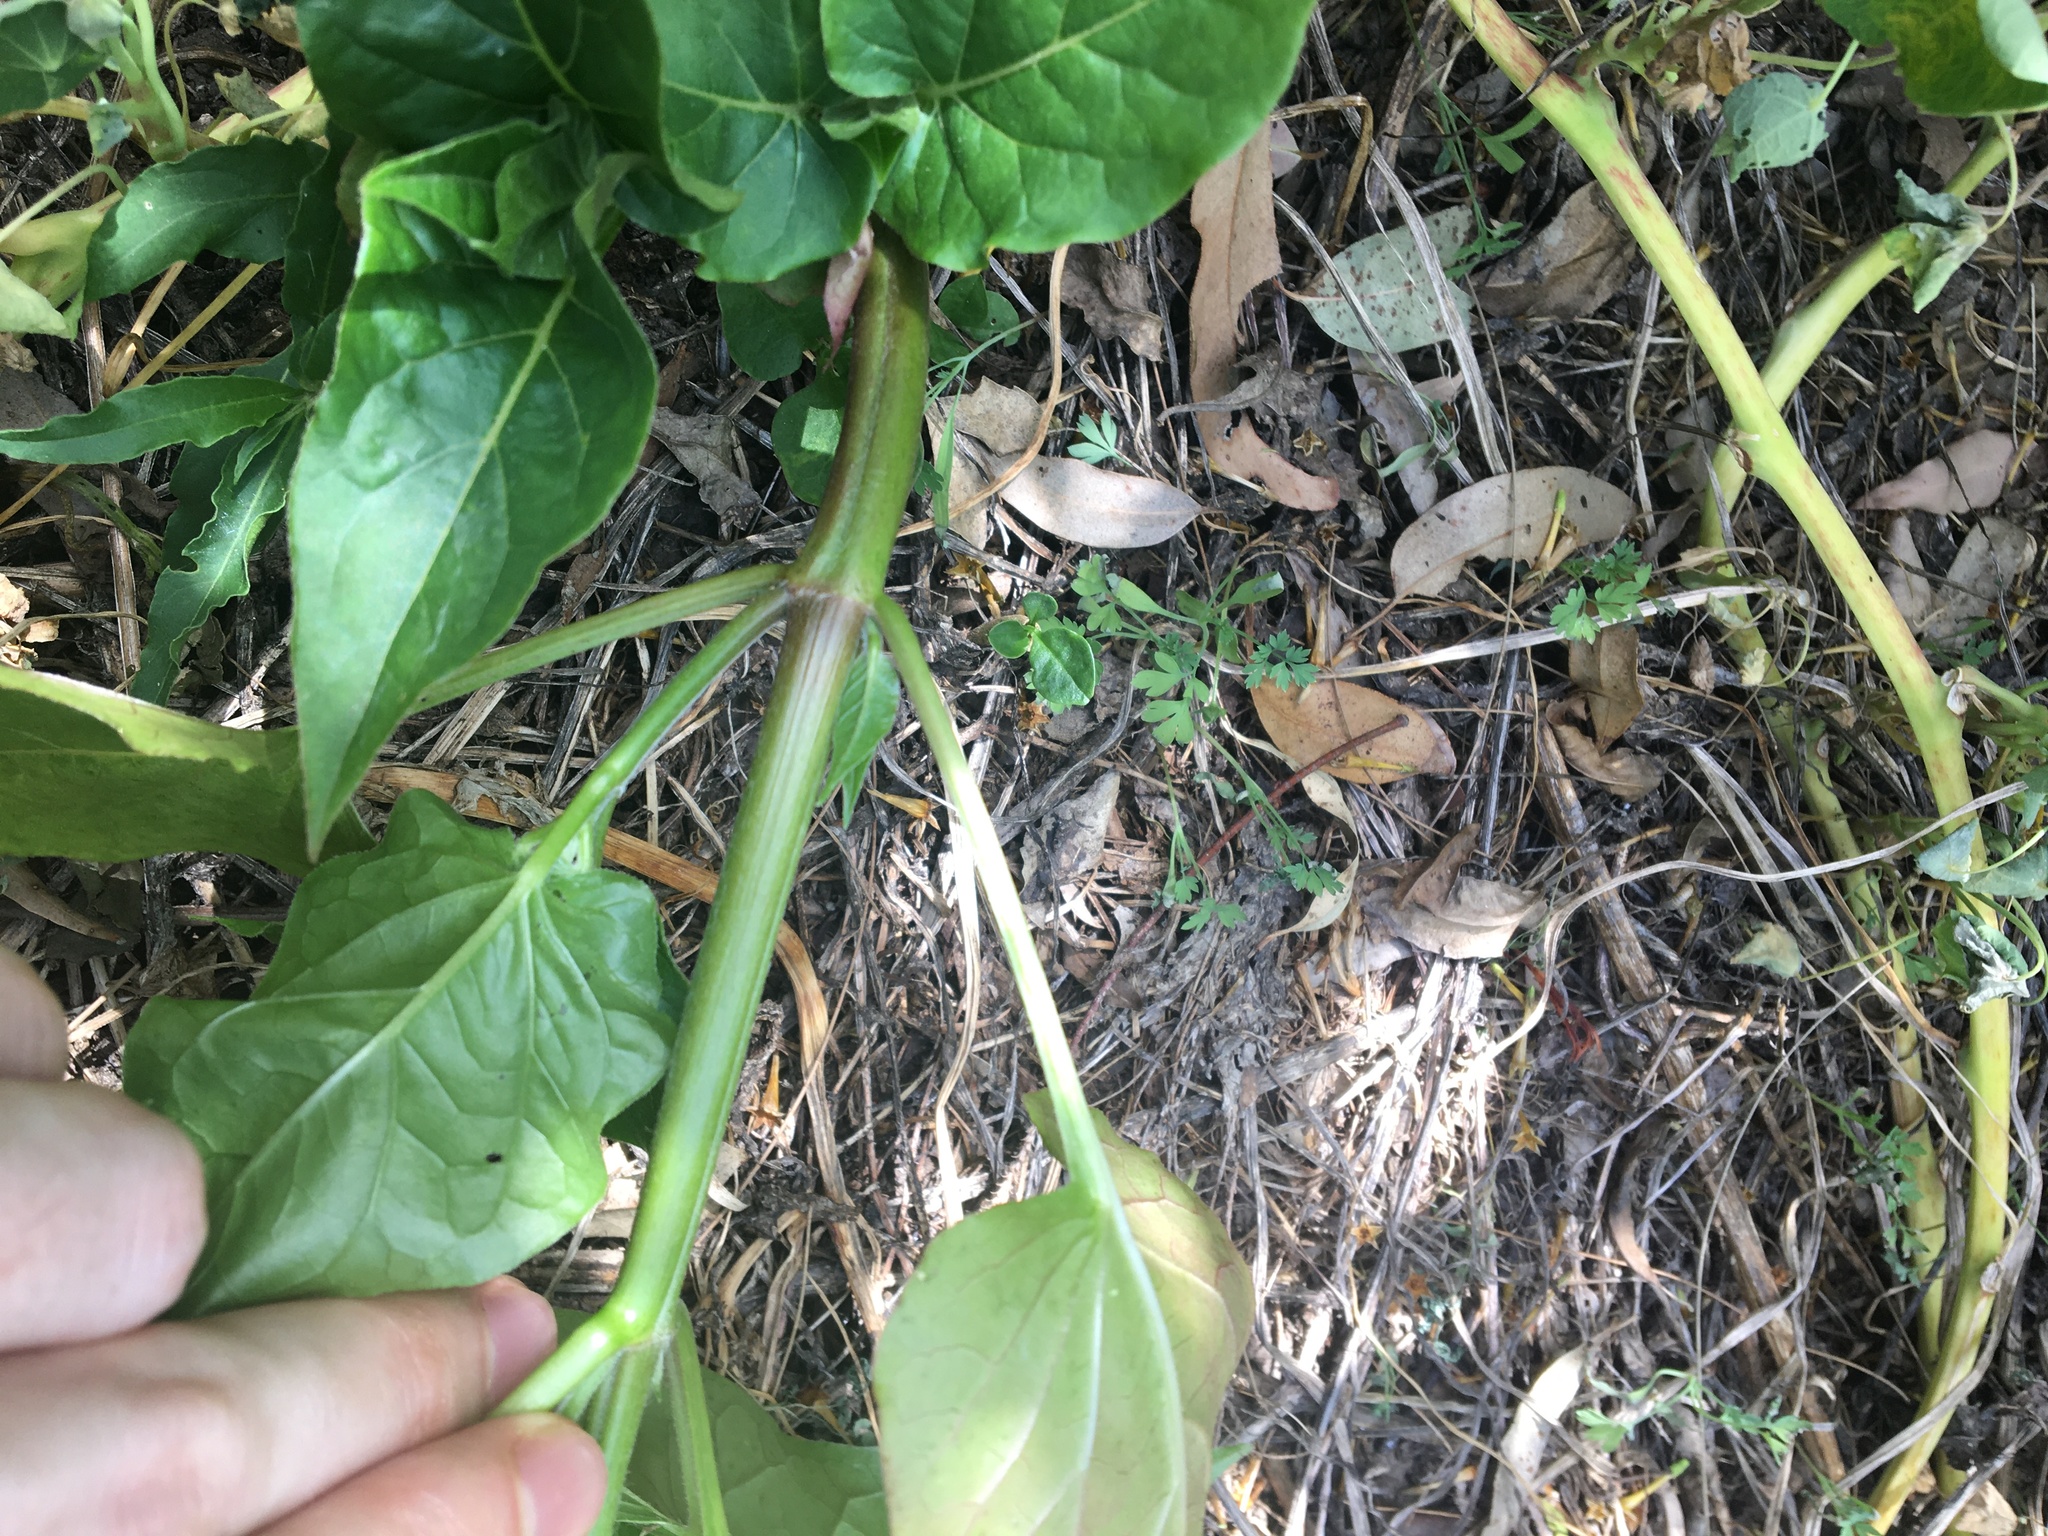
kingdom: Plantae
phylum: Tracheophyta
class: Magnoliopsida
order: Caryophyllales
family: Nyctaginaceae
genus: Mirabilis
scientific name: Mirabilis jalapa
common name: Marvel-of-peru
